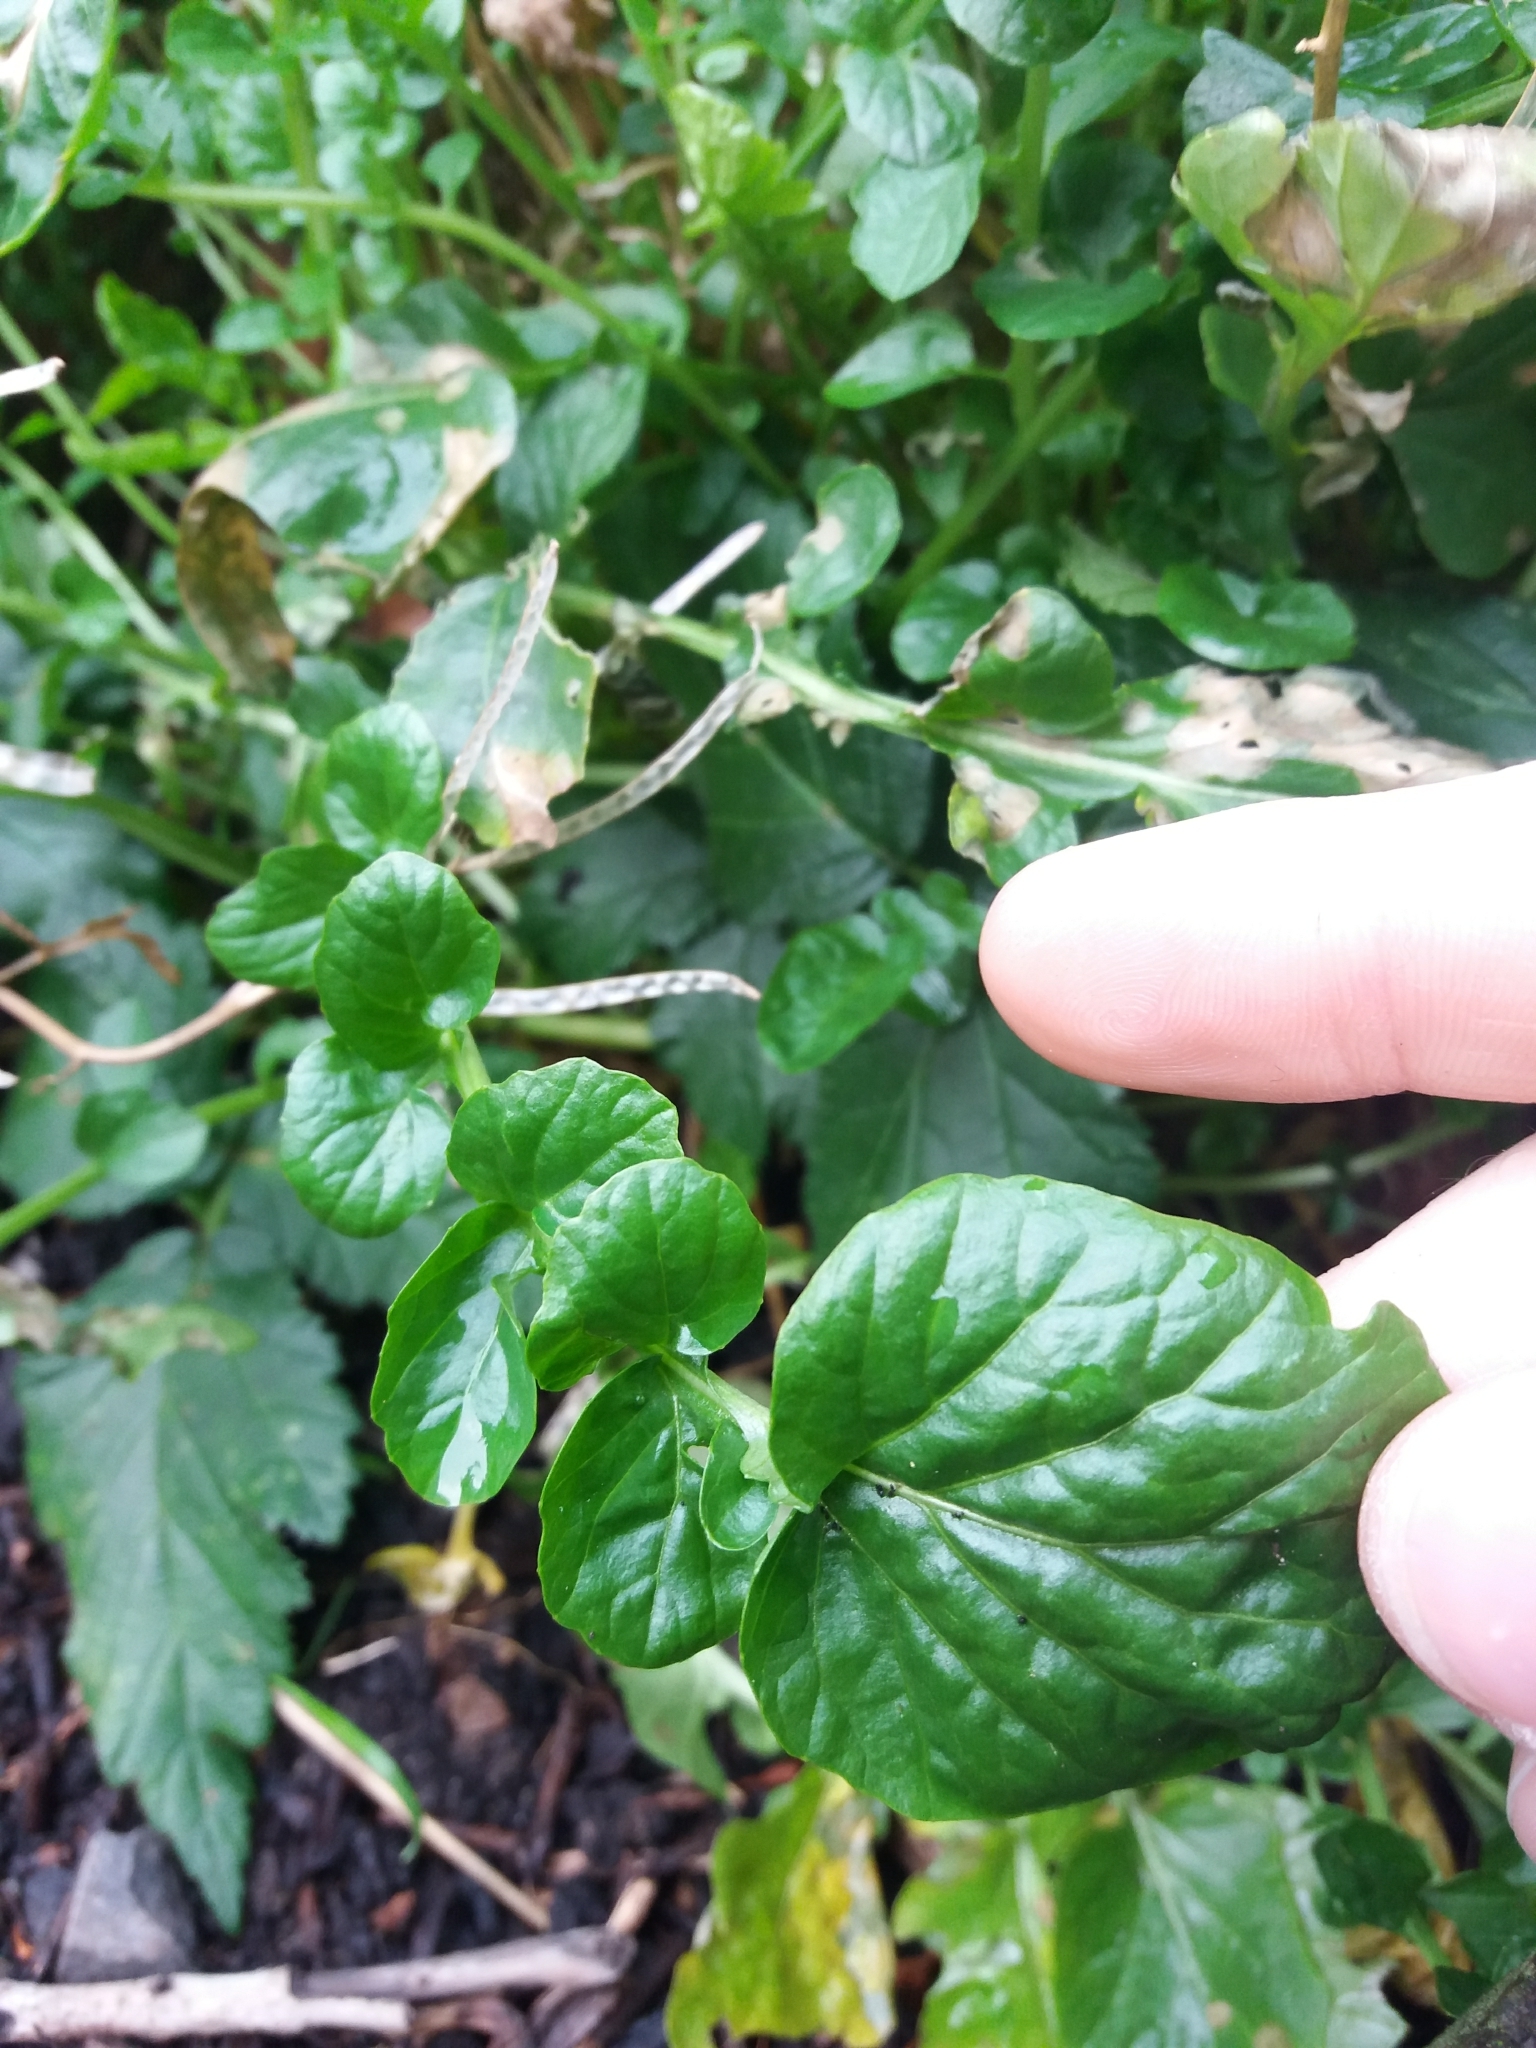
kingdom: Plantae
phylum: Tracheophyta
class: Magnoliopsida
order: Brassicales
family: Brassicaceae
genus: Barbarea
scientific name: Barbarea intermedia
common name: Medium-flowered winter-cress
